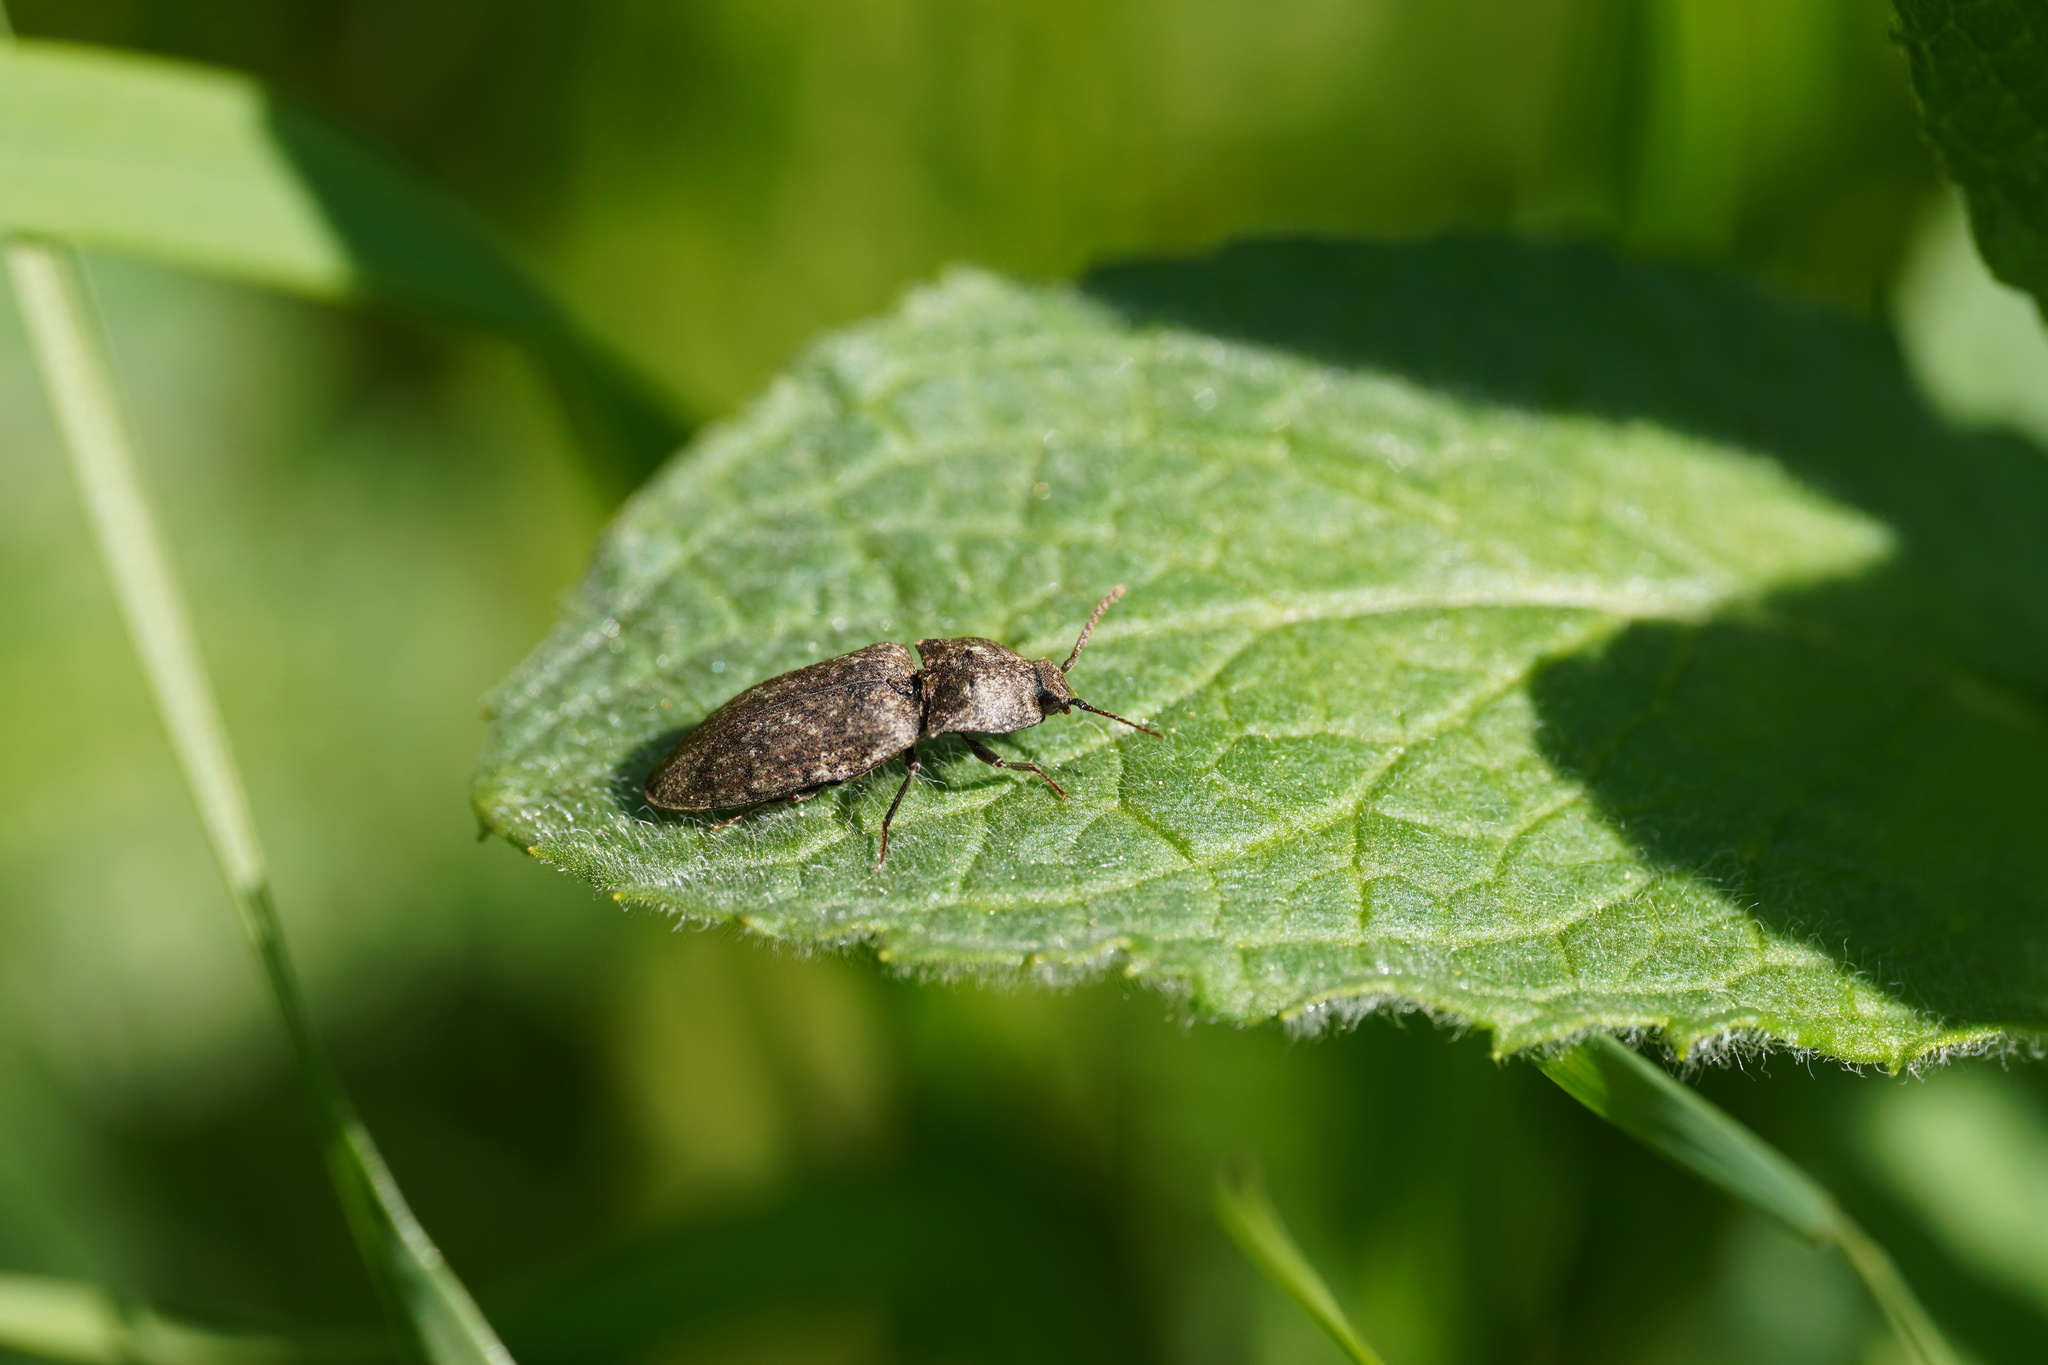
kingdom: Animalia
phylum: Arthropoda
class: Insecta
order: Coleoptera
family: Elateridae
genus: Agrypnus
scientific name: Agrypnus murinus
